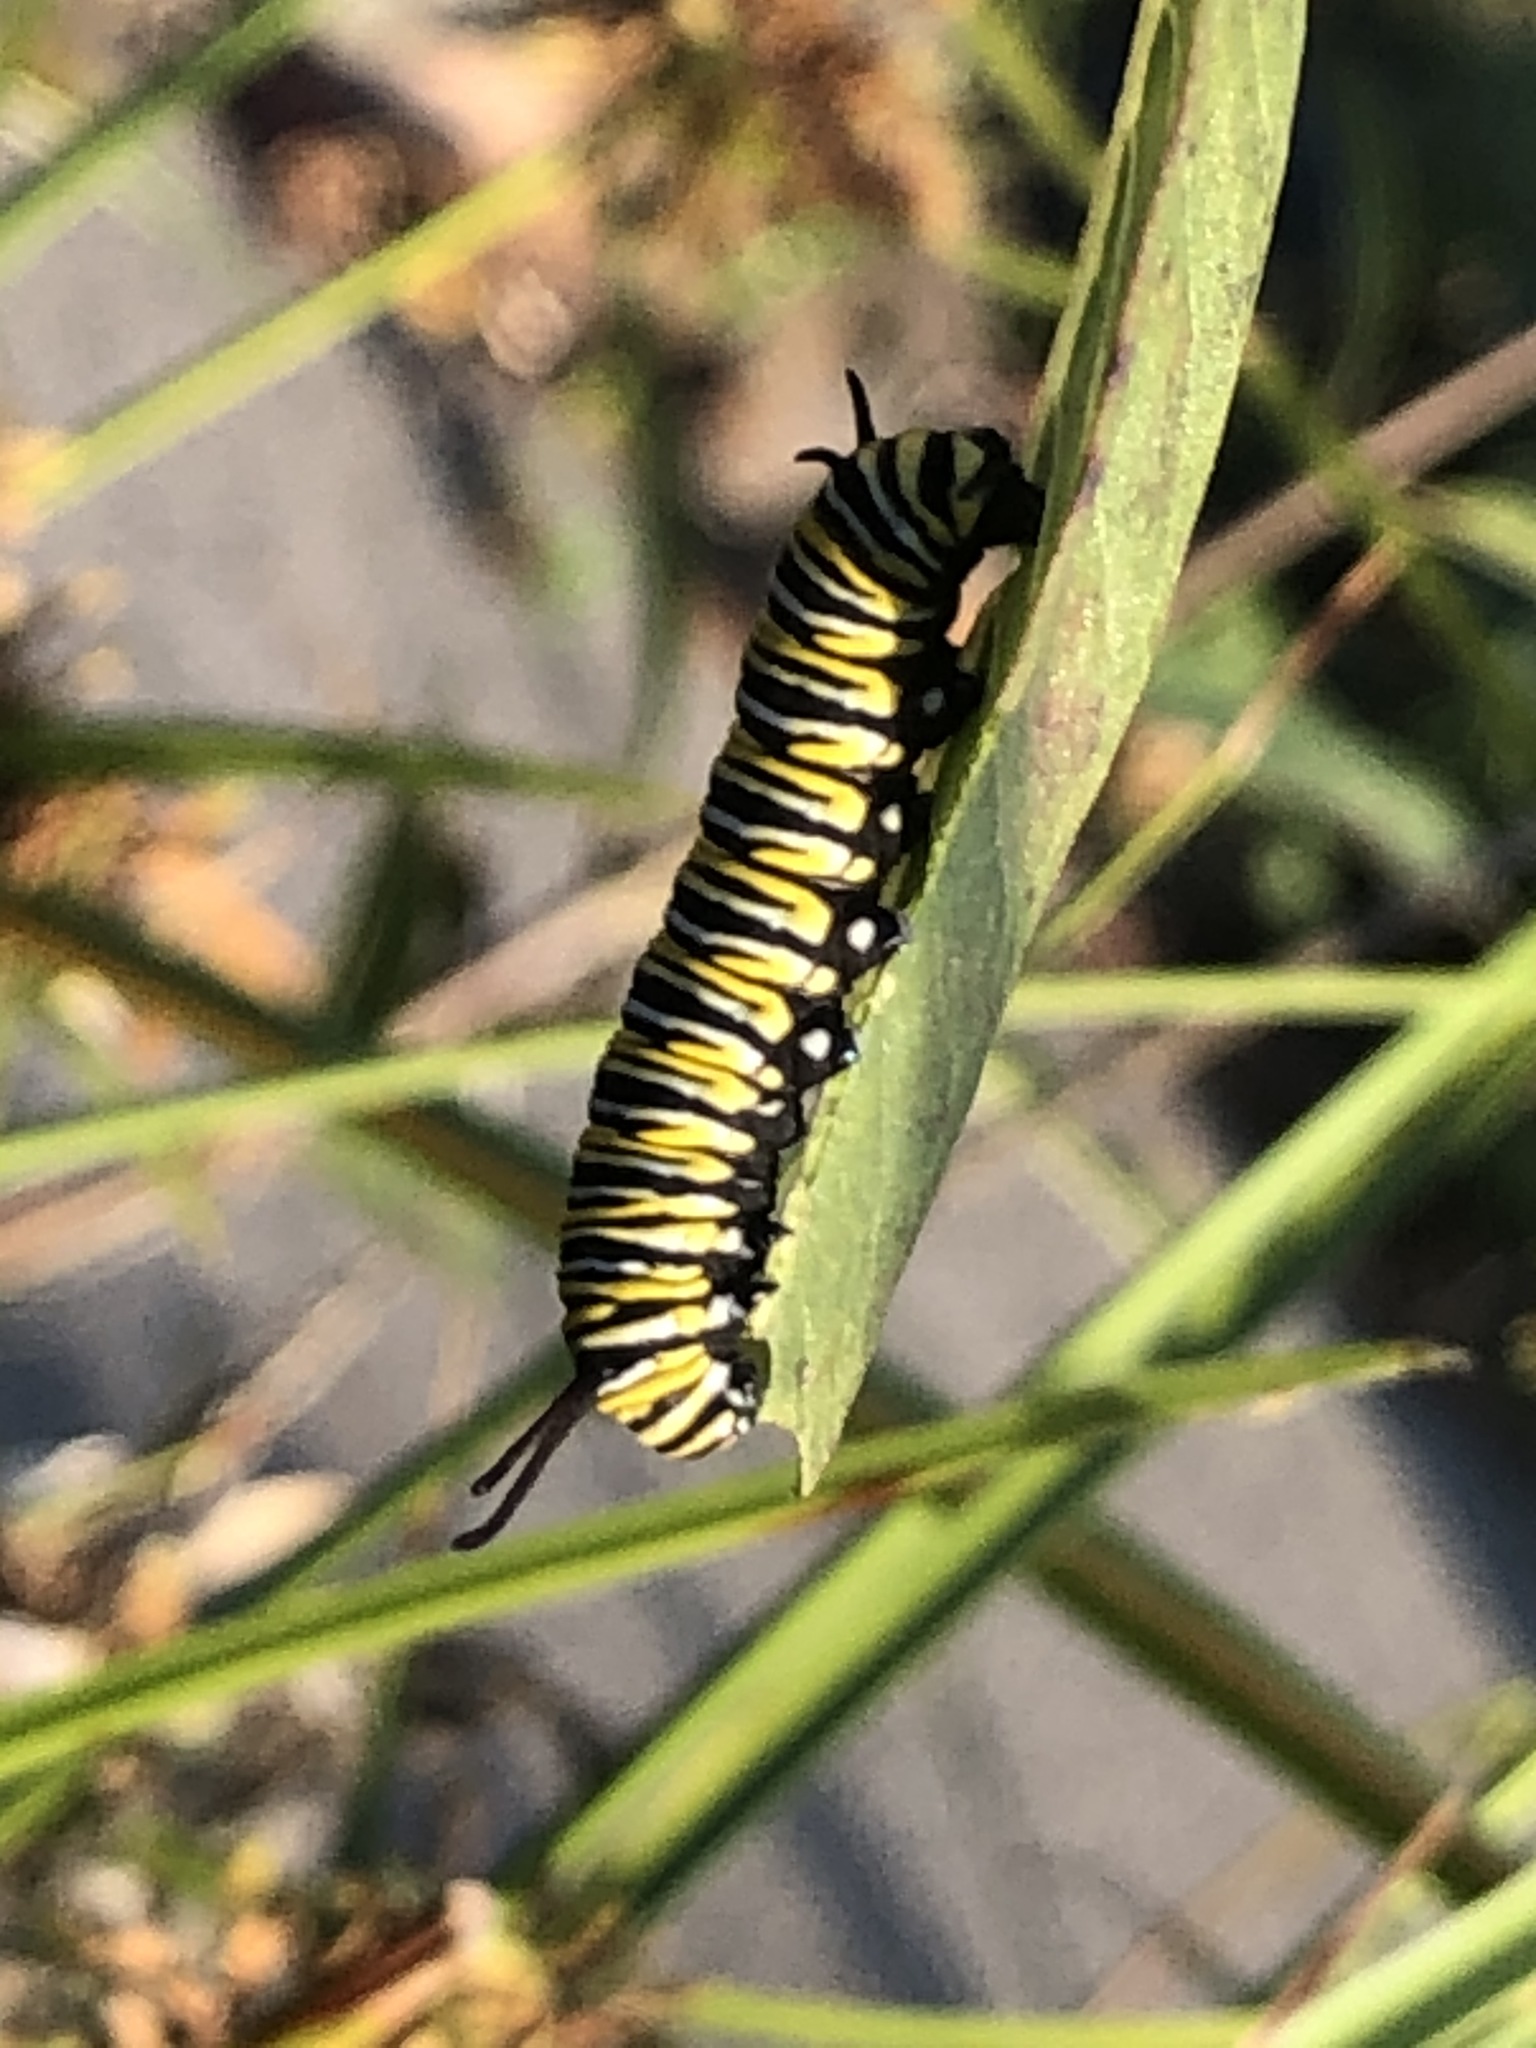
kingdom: Animalia
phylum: Arthropoda
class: Insecta
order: Lepidoptera
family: Nymphalidae
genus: Danaus
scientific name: Danaus plexippus
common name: Monarch
